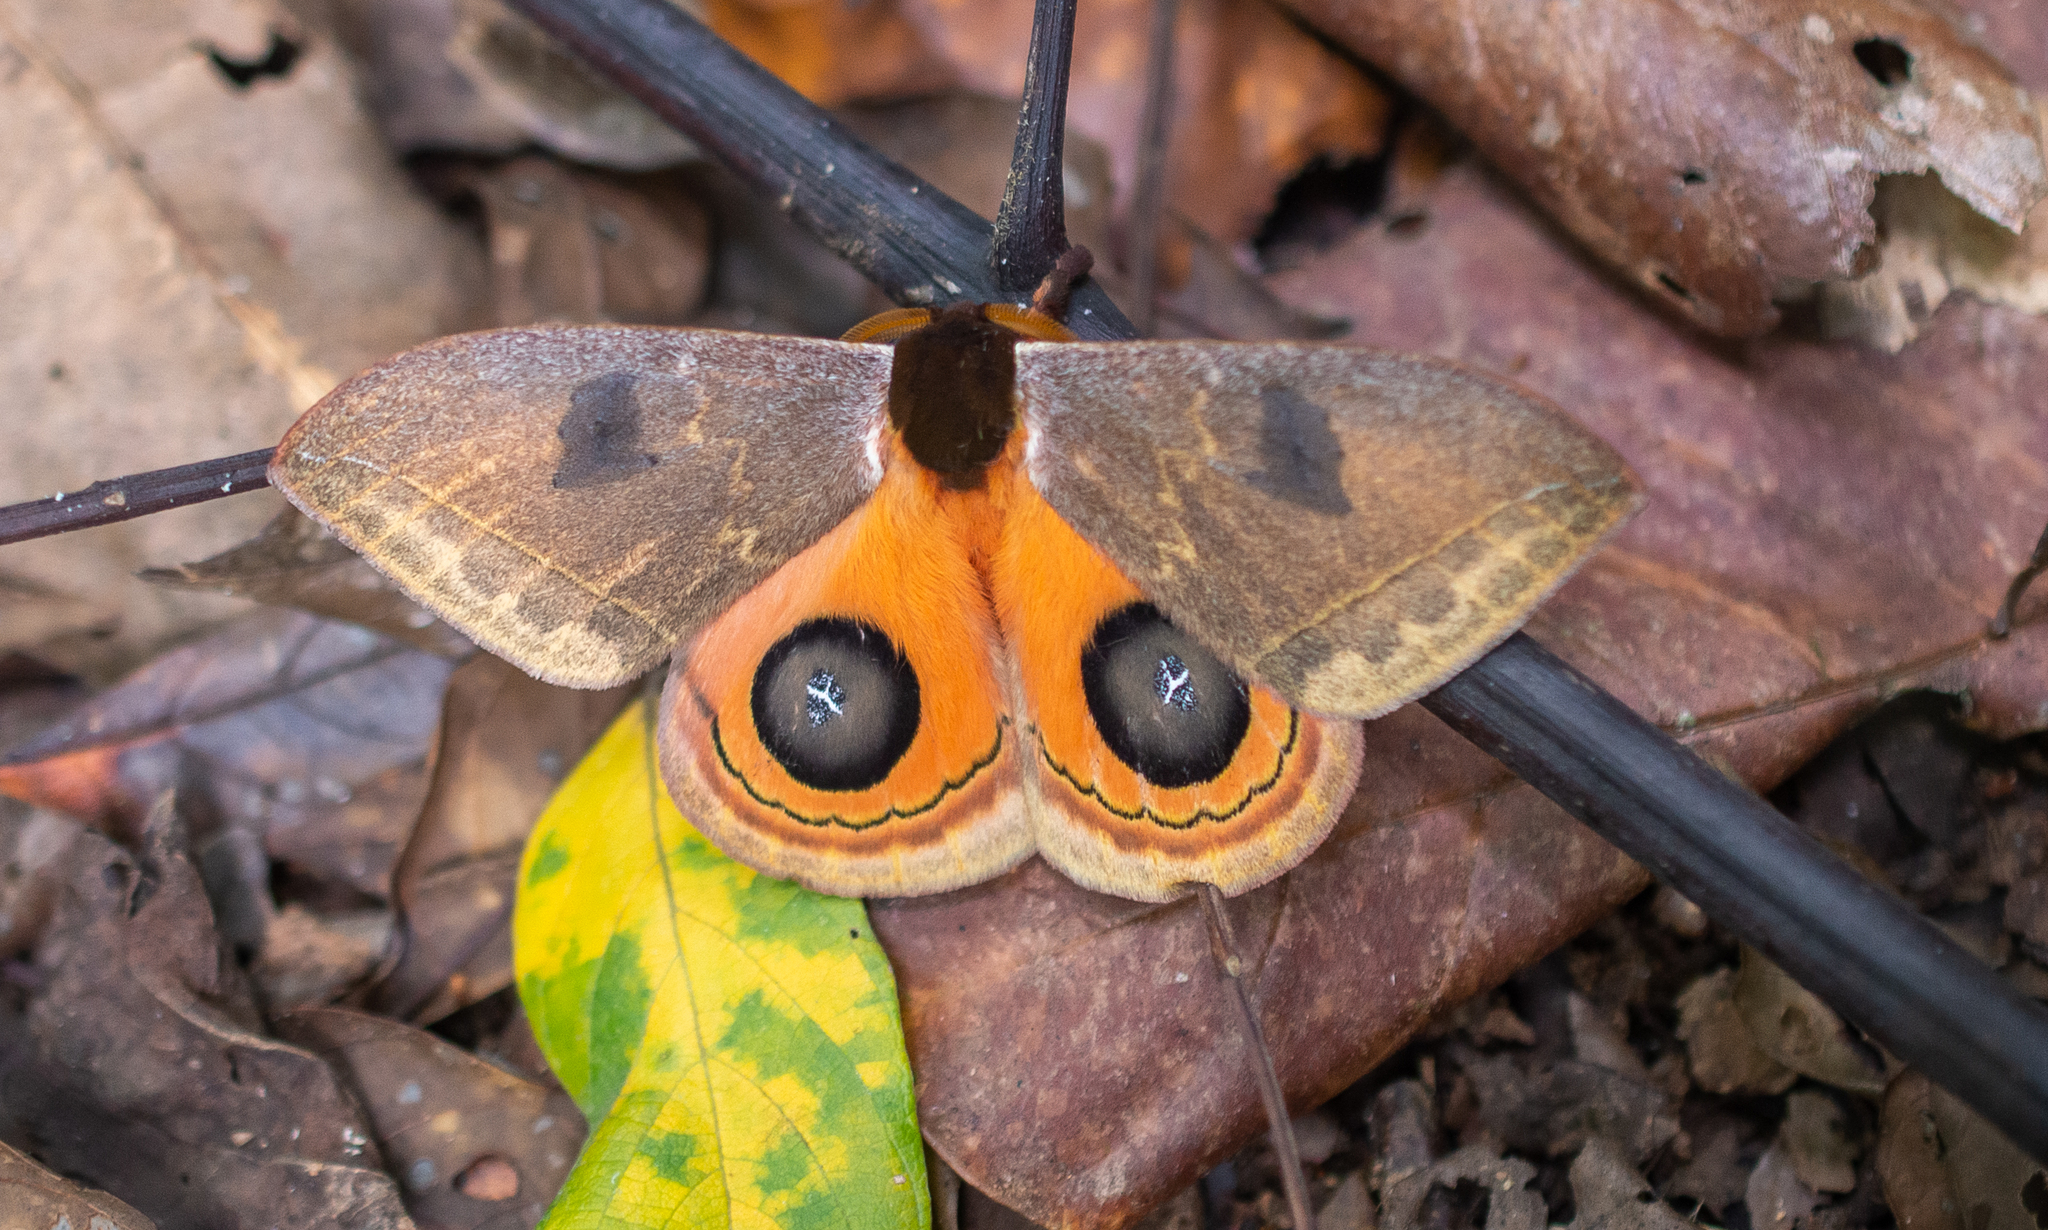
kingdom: Animalia
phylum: Arthropoda
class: Insecta
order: Lepidoptera
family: Saturniidae
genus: Automeris
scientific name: Automeris moresca
